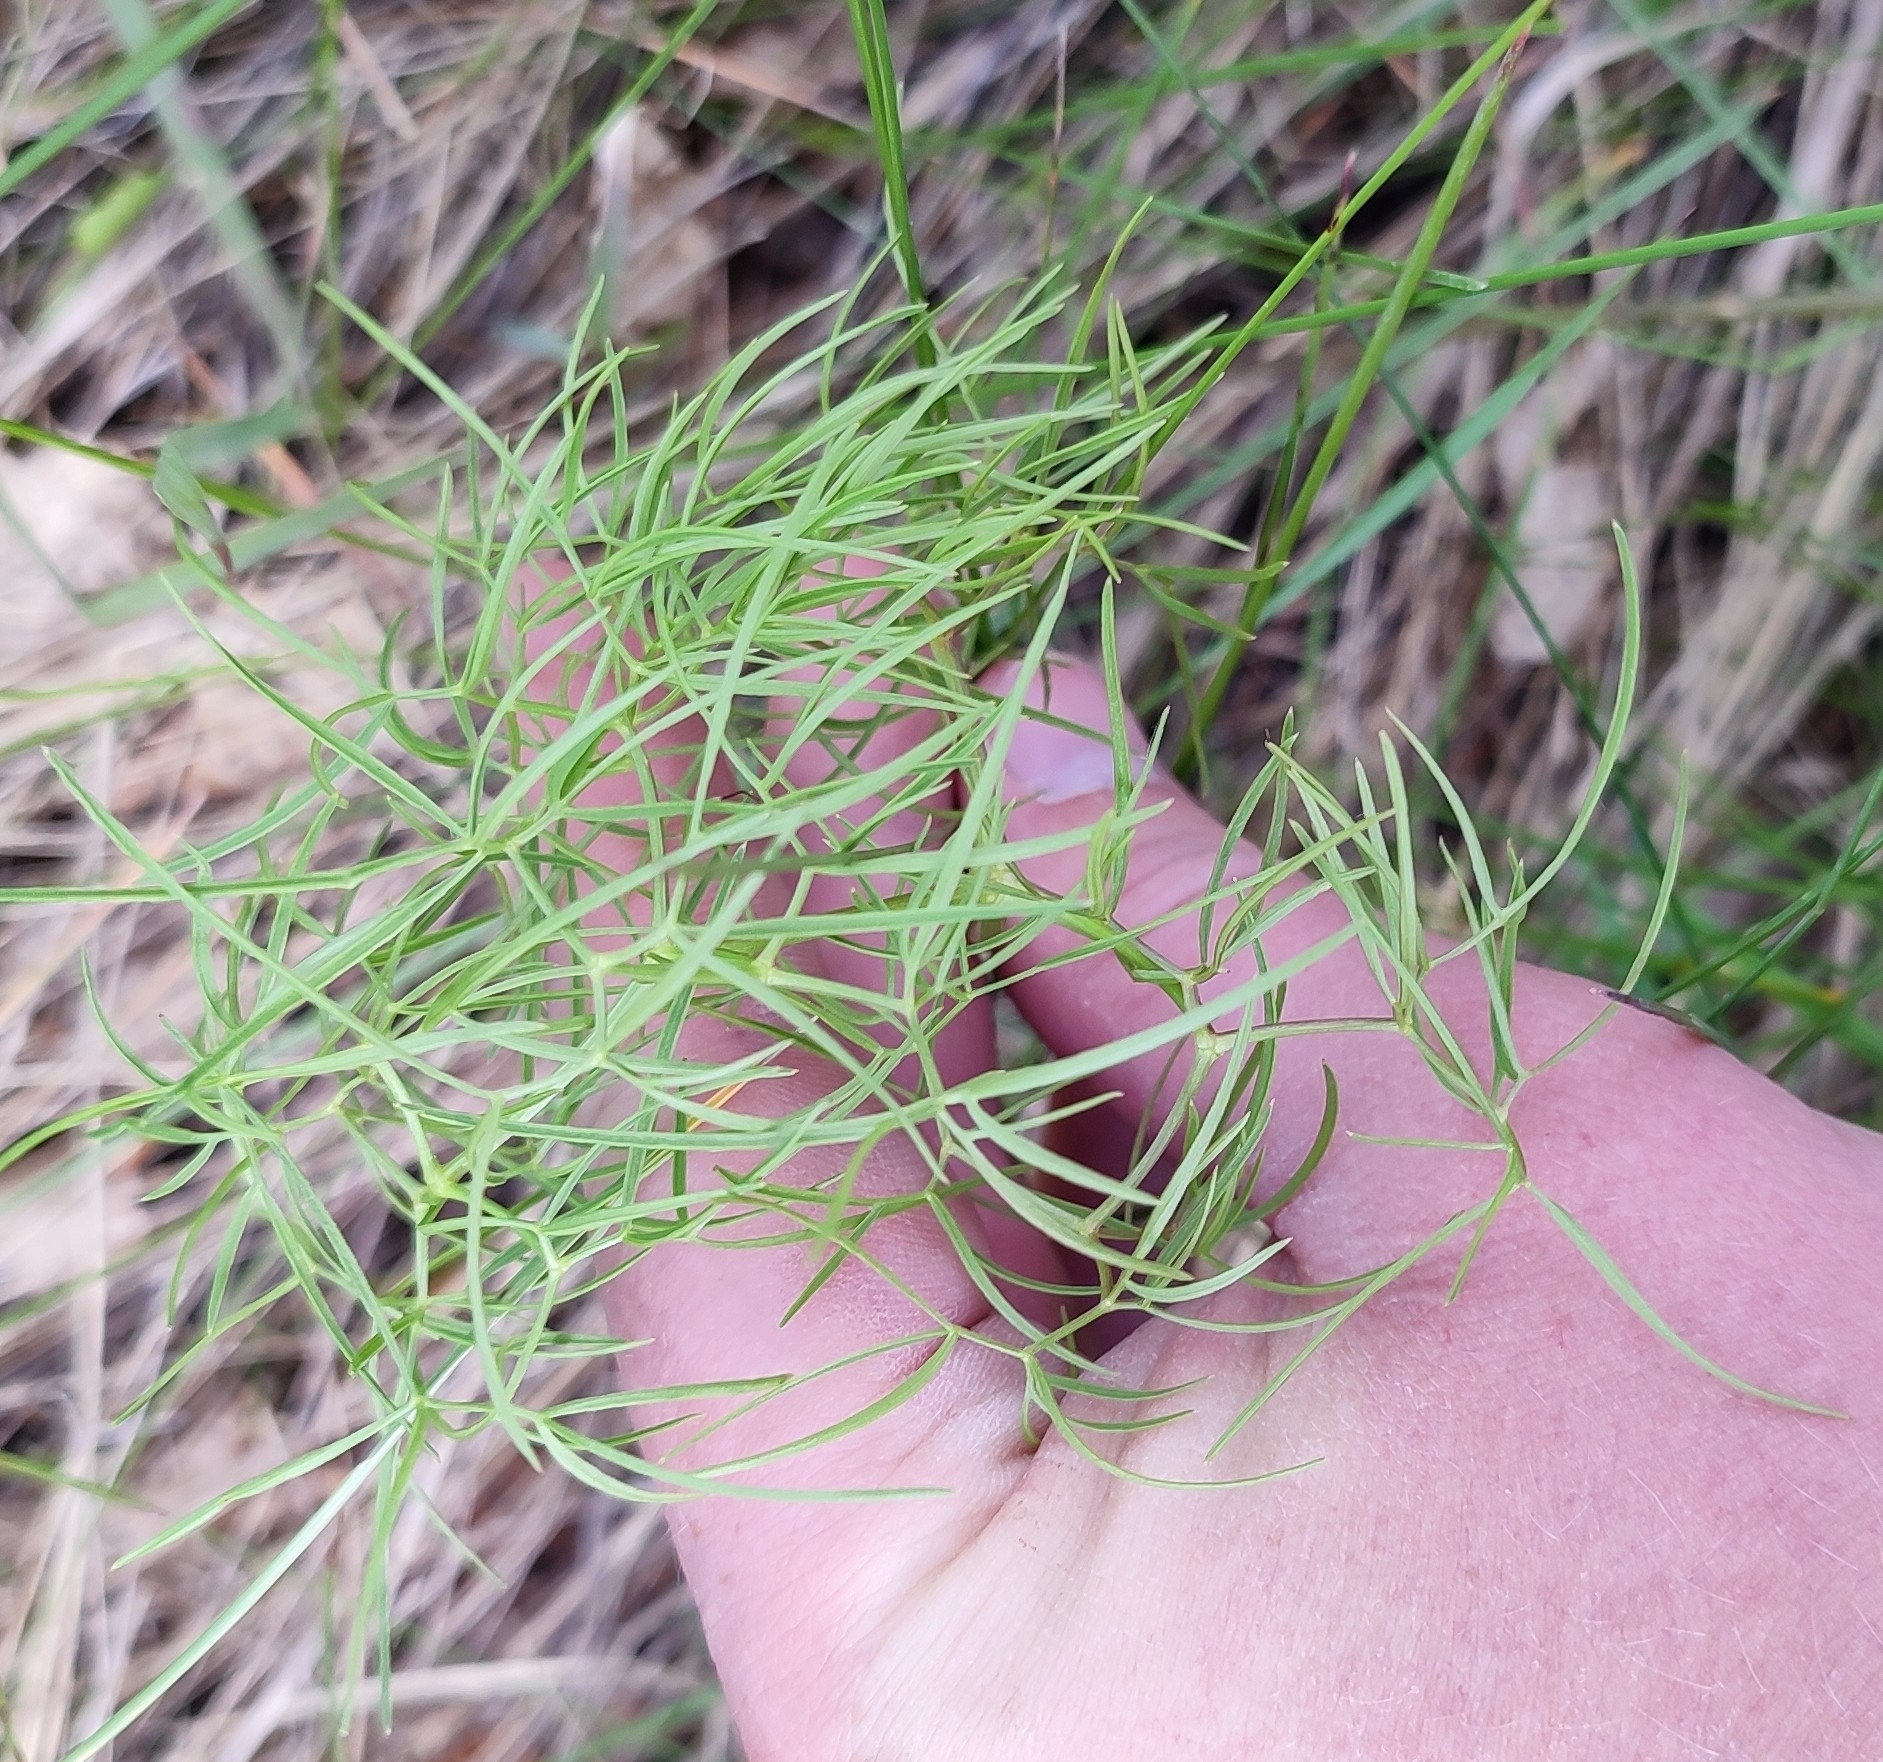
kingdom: Plantae
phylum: Tracheophyta
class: Magnoliopsida
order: Apiales
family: Apiaceae
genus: Cenolophium
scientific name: Cenolophium fischeri
